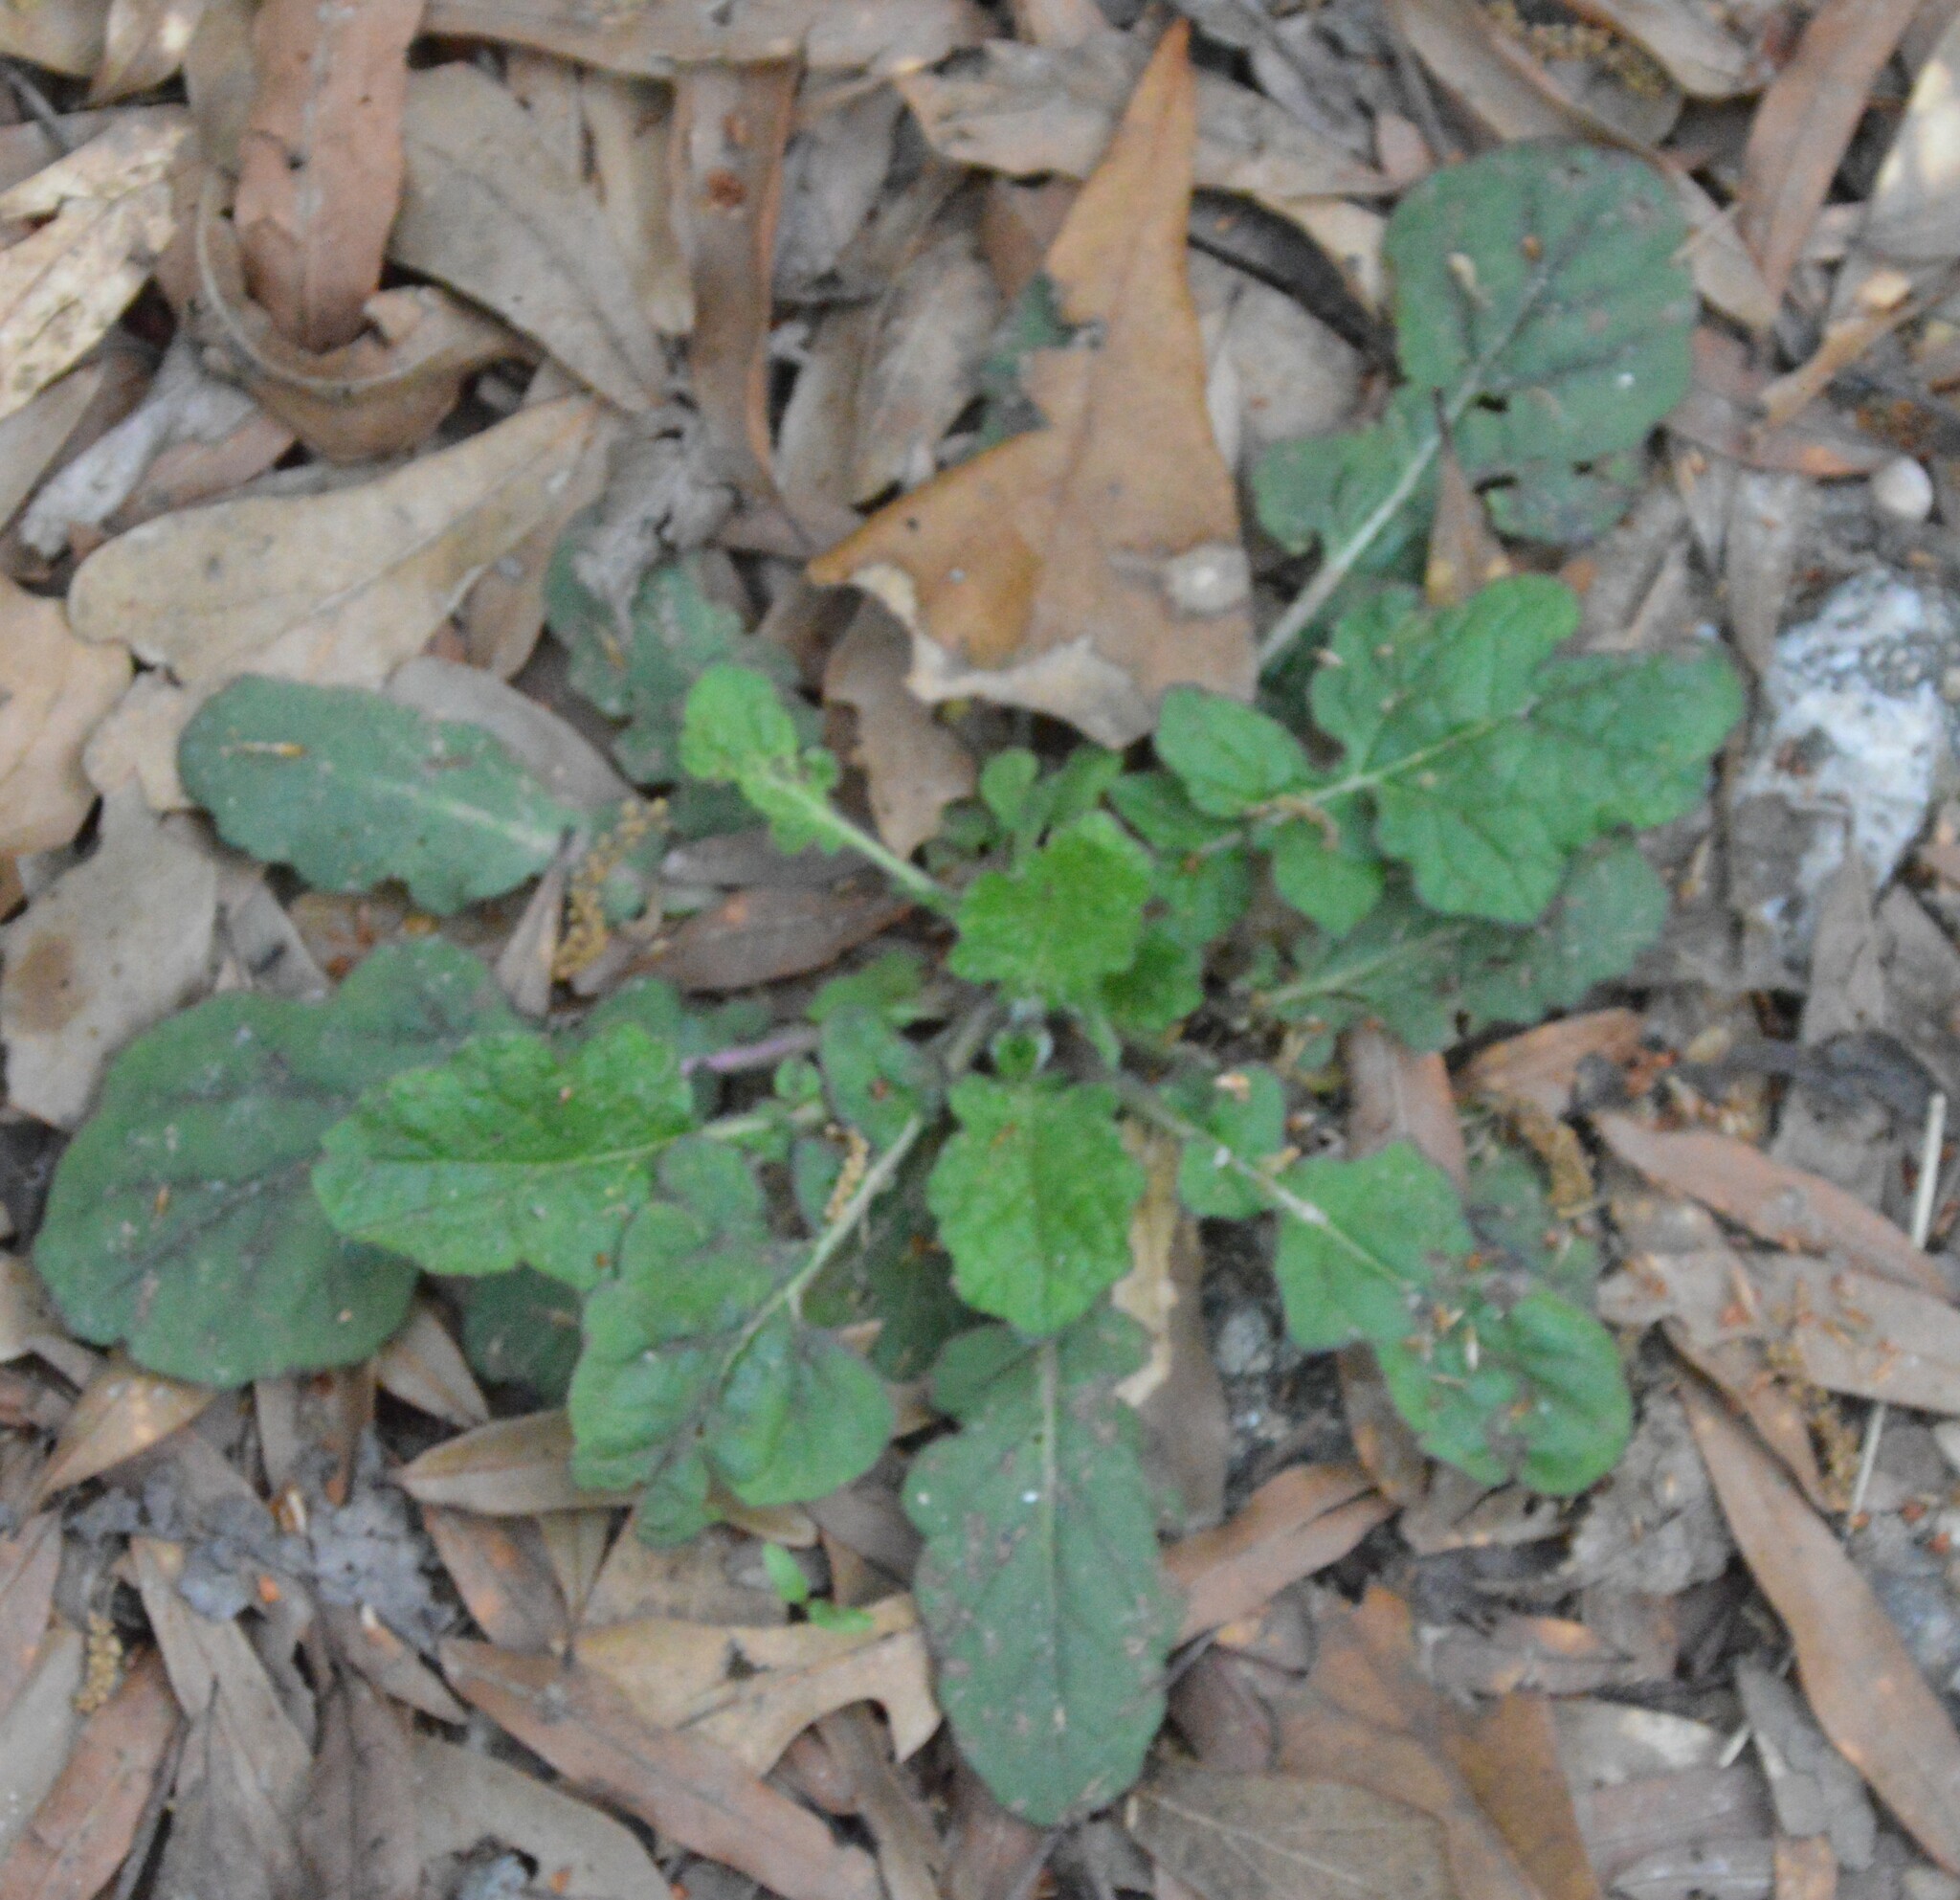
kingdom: Plantae
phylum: Tracheophyta
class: Magnoliopsida
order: Lamiales
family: Lamiaceae
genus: Salvia
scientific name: Salvia lyrata
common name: Cancerweed
